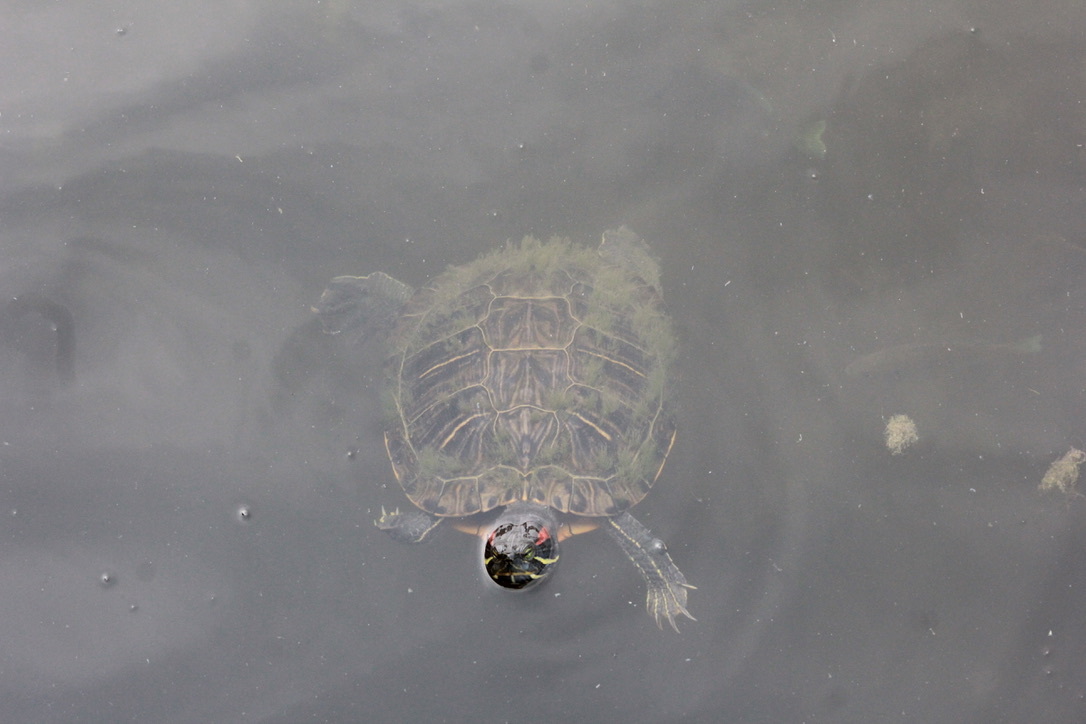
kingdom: Animalia
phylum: Chordata
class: Testudines
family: Emydidae
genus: Trachemys
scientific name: Trachemys scripta
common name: Slider
